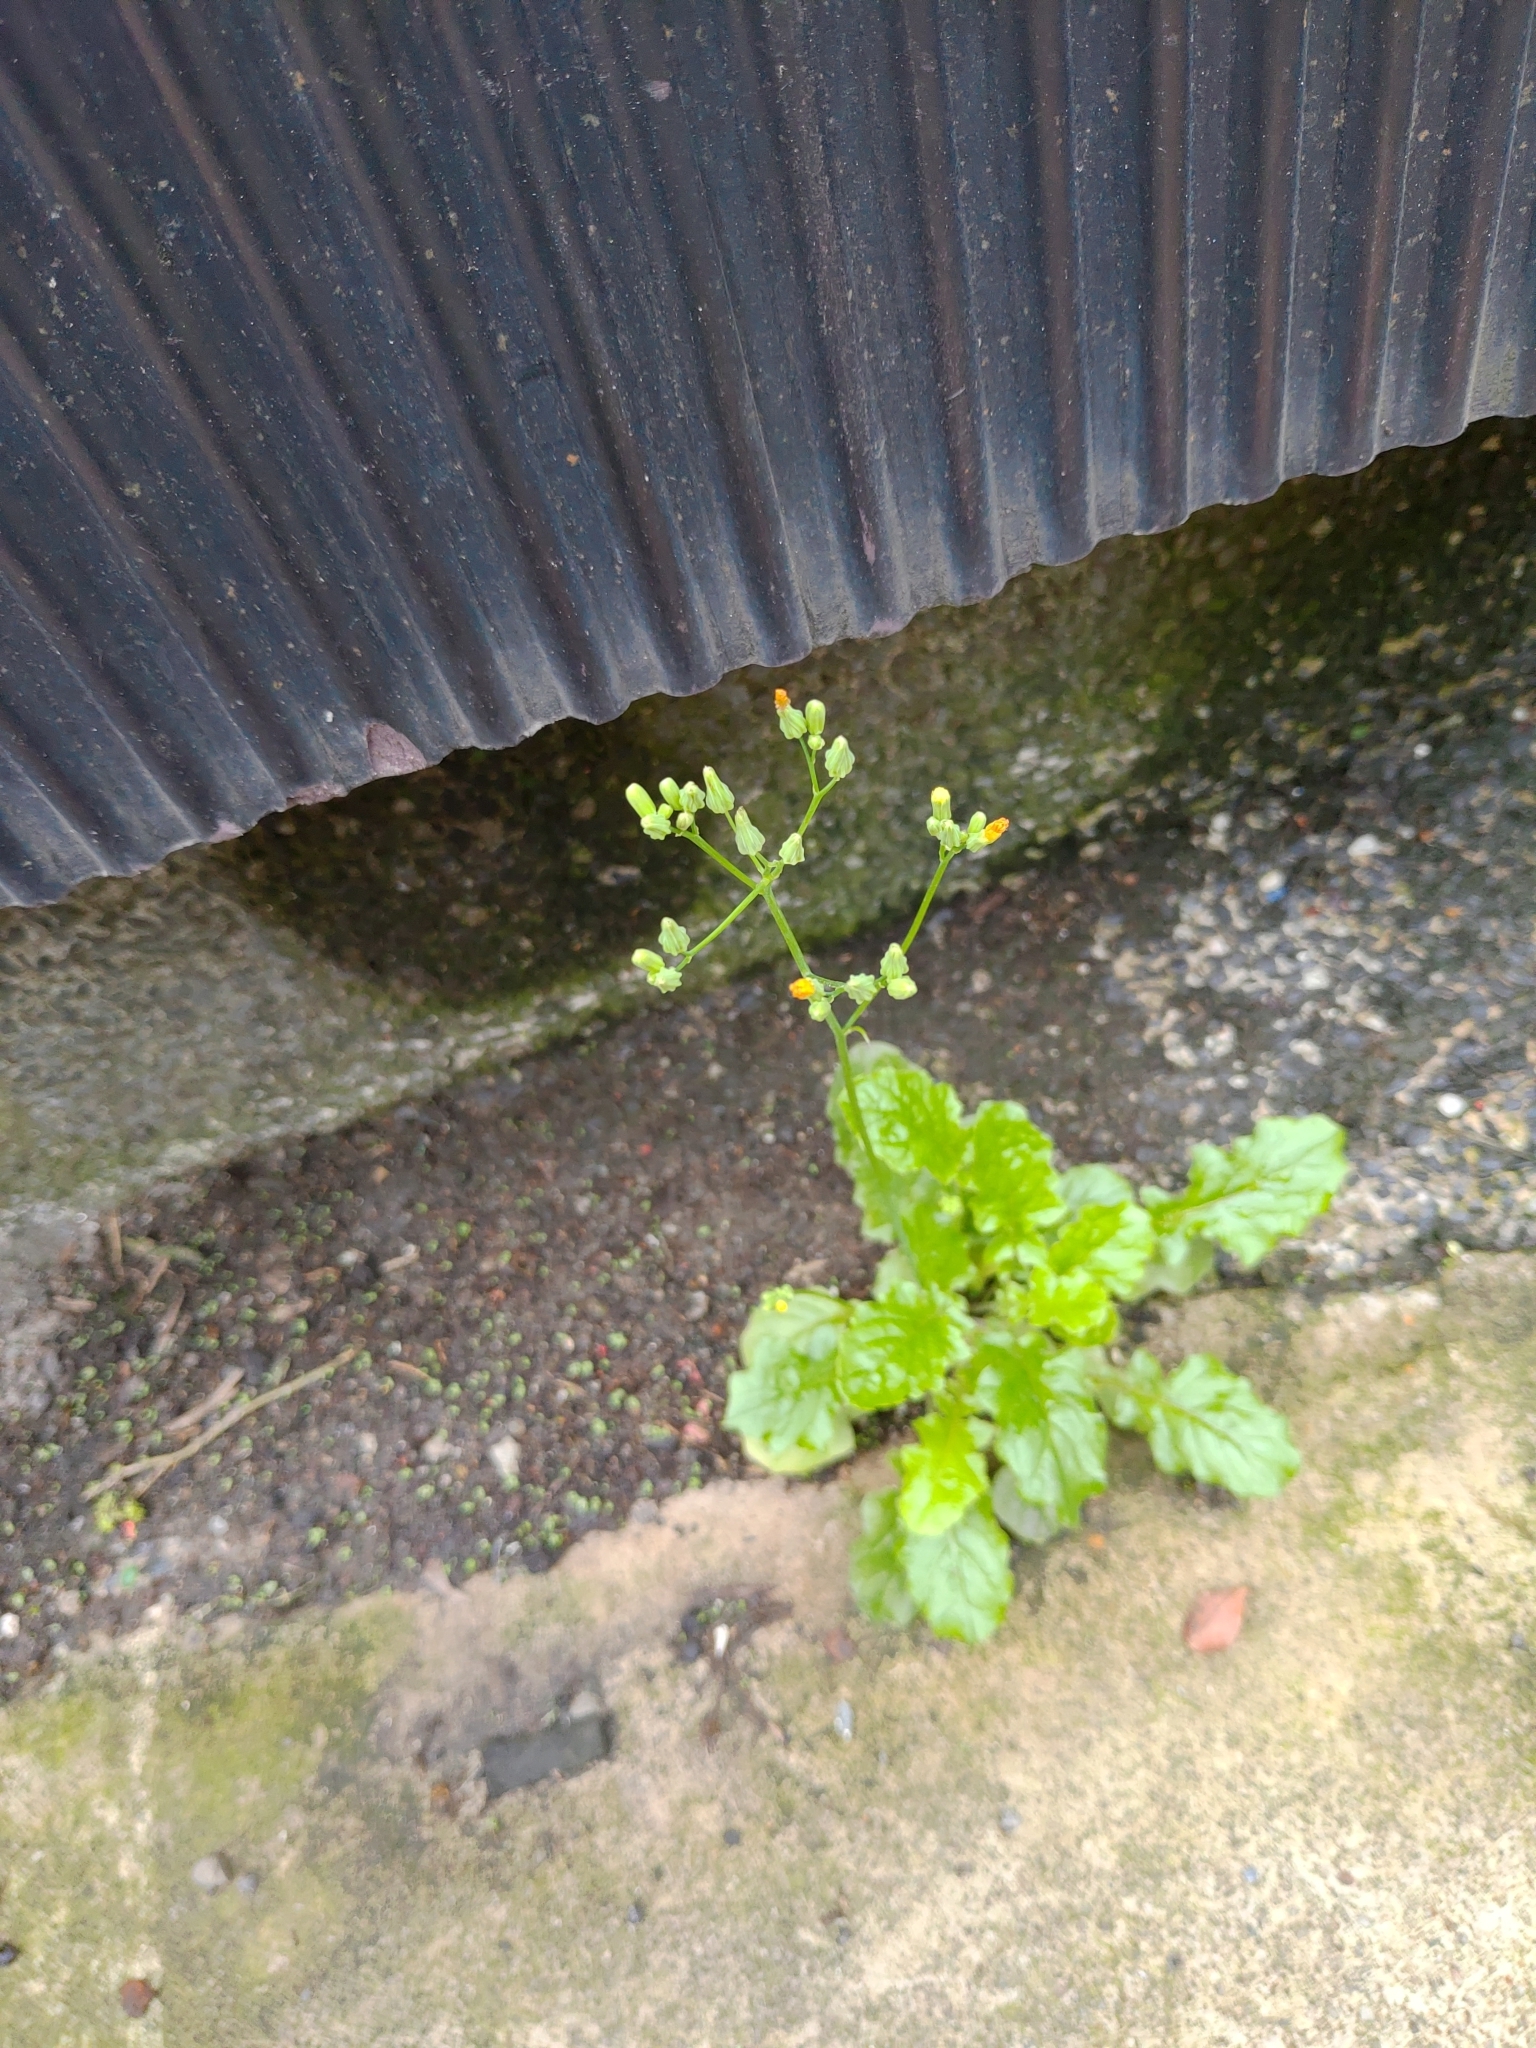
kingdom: Plantae
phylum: Tracheophyta
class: Magnoliopsida
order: Asterales
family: Asteraceae
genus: Youngia
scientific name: Youngia japonica
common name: Oriental false hawksbeard
